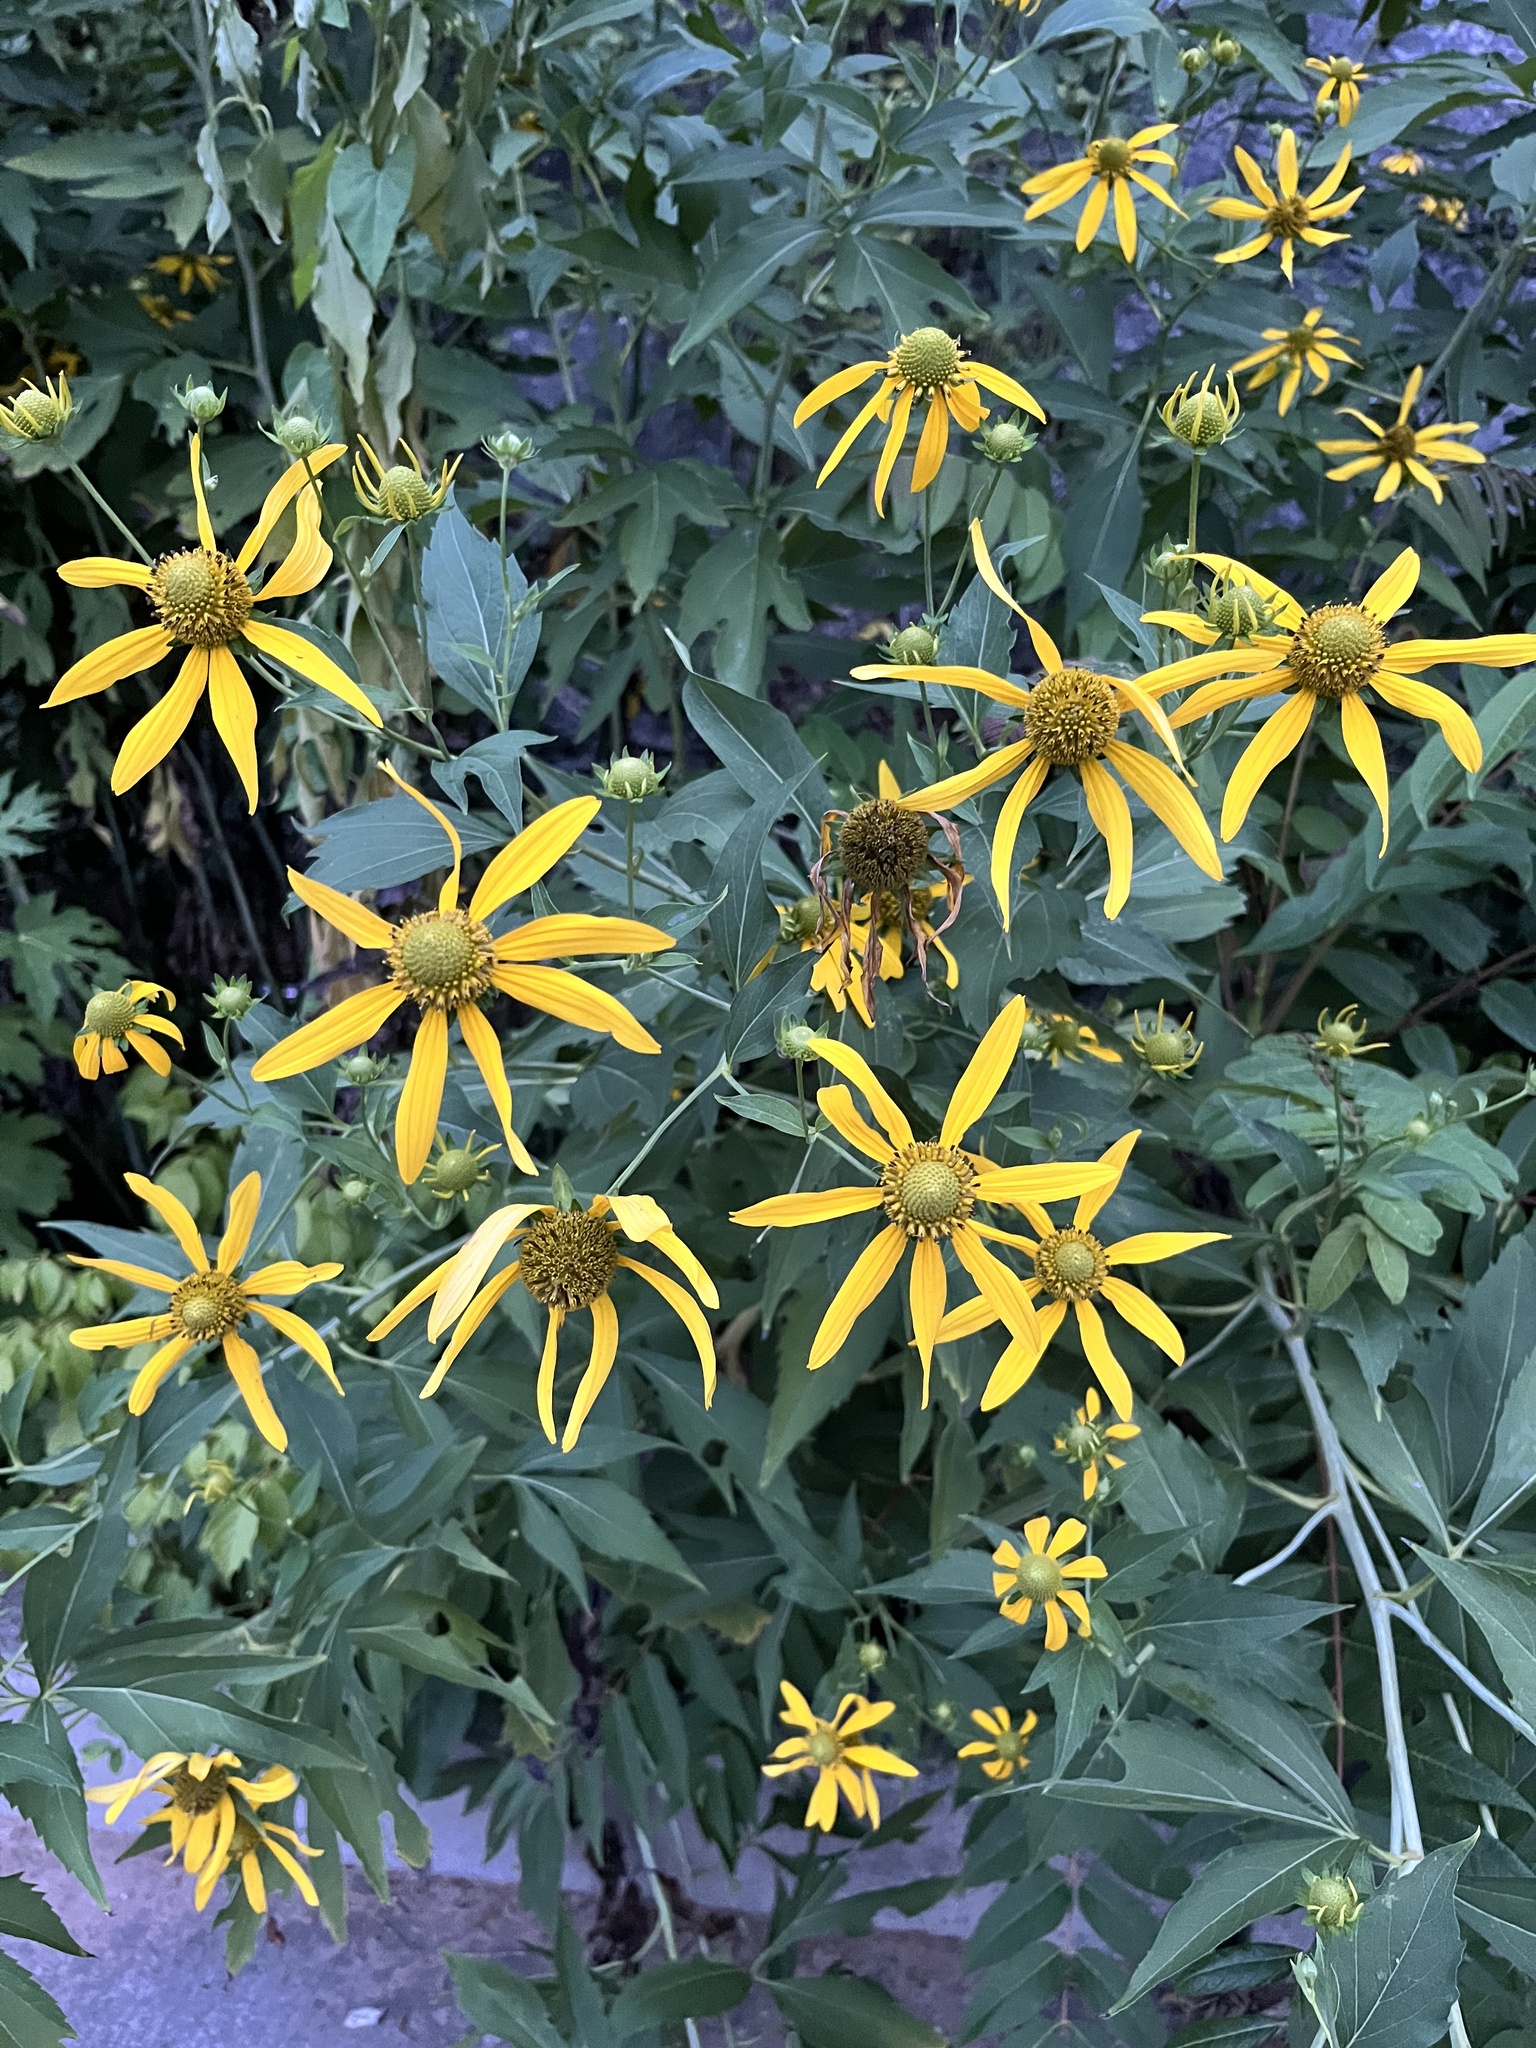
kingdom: Plantae
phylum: Tracheophyta
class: Magnoliopsida
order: Asterales
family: Asteraceae
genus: Rudbeckia
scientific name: Rudbeckia laciniata
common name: Coneflower
